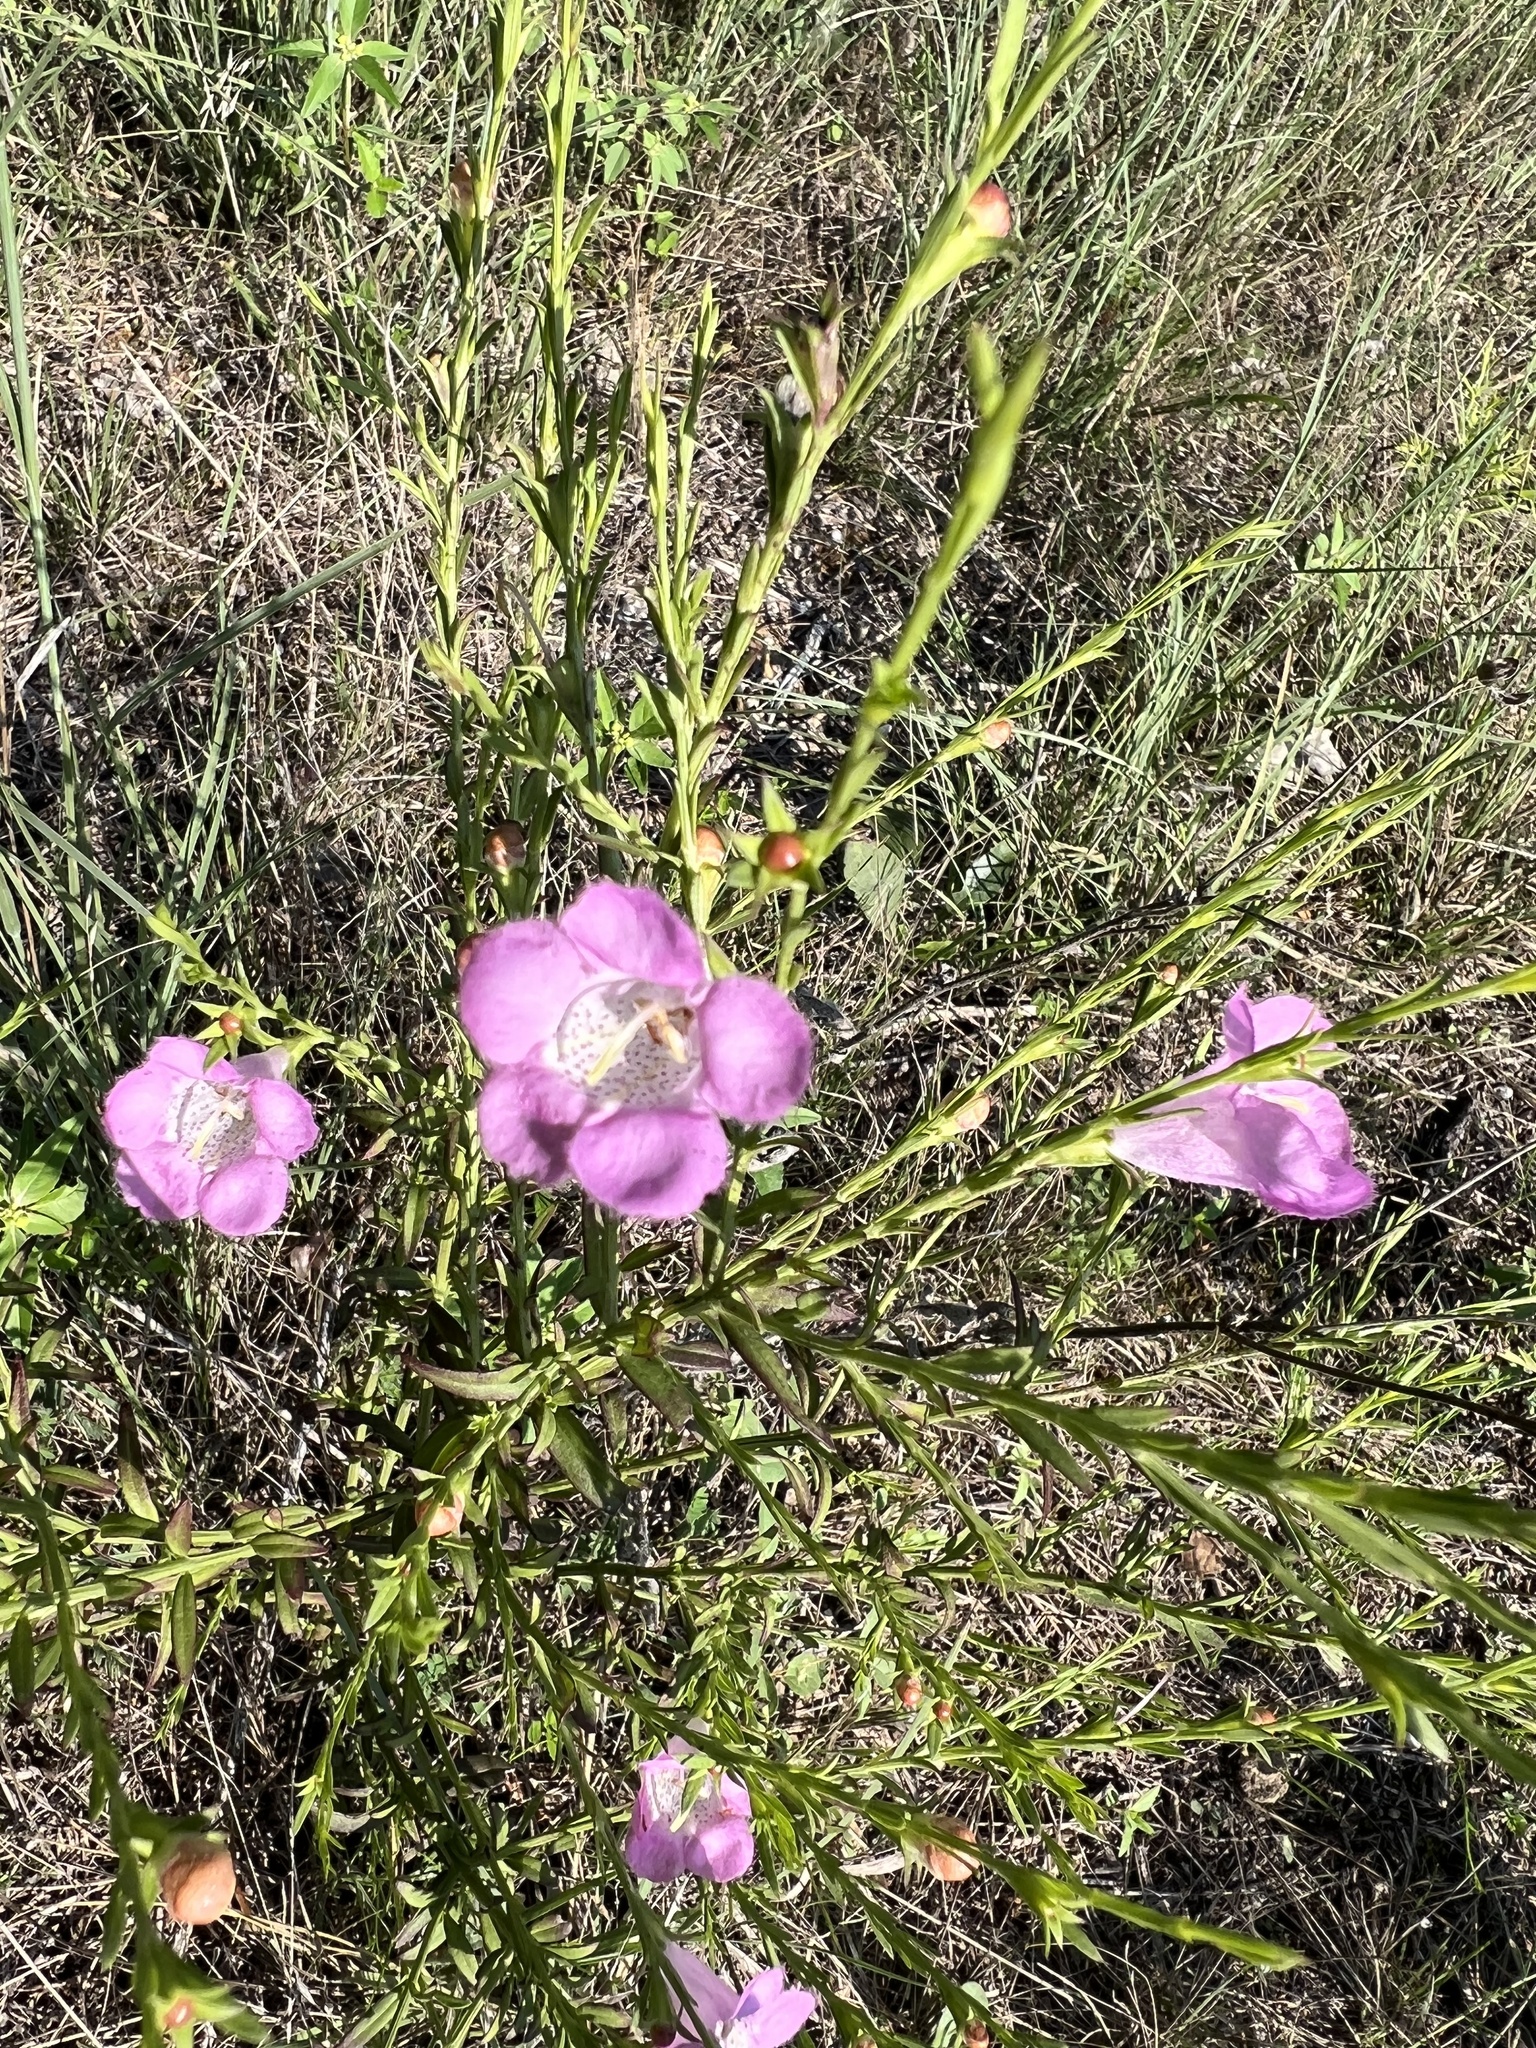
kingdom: Plantae
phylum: Tracheophyta
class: Magnoliopsida
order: Lamiales
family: Orobanchaceae
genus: Agalinis
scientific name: Agalinis heterophylla
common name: Prairie agalinis
